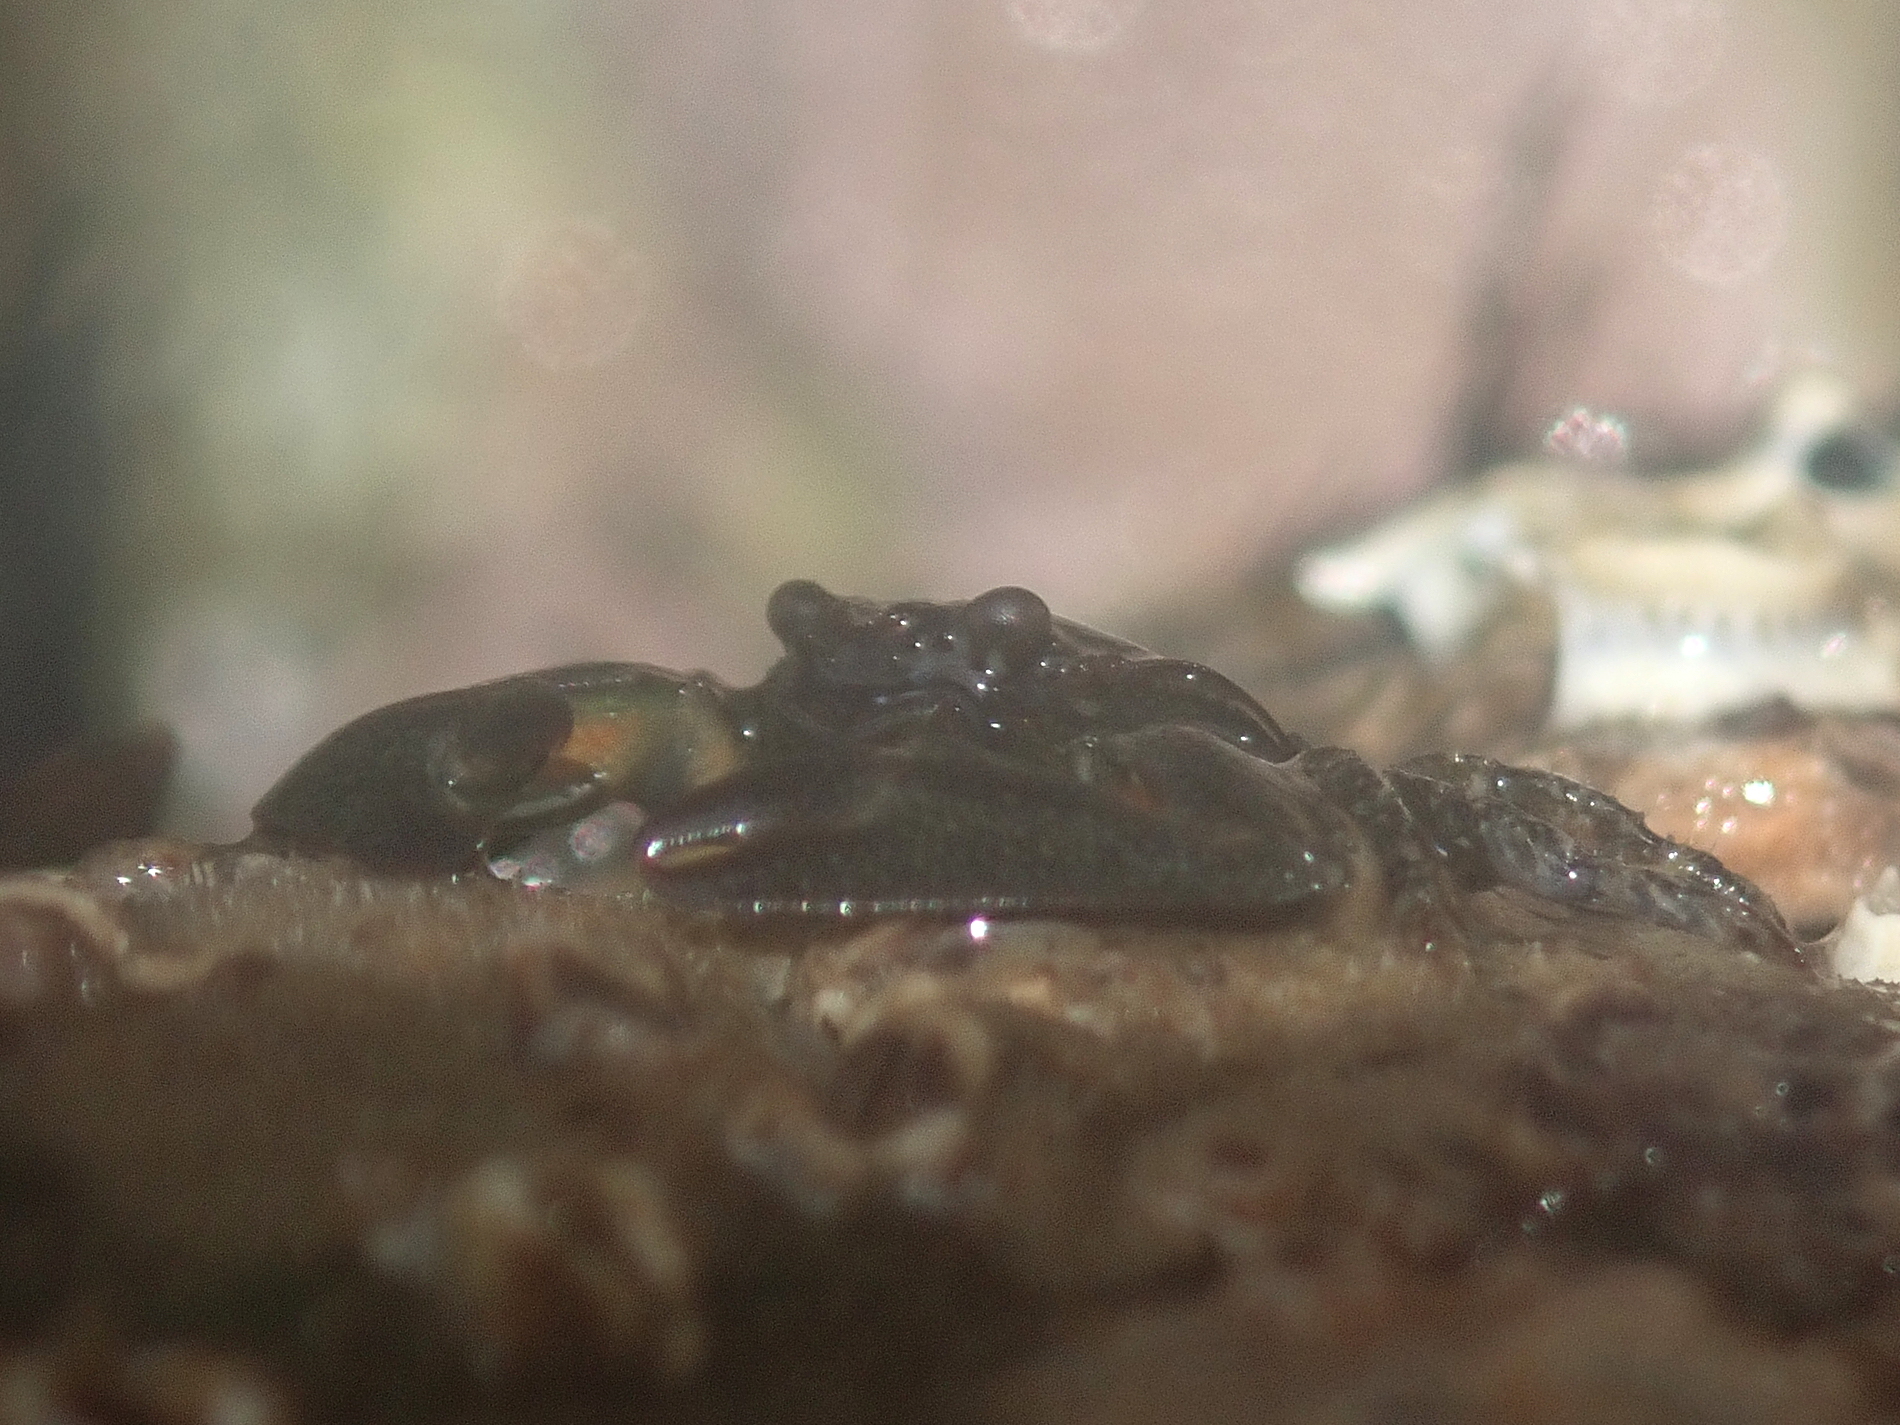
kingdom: Animalia
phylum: Arthropoda
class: Malacostraca
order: Decapoda
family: Porcellanidae
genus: Petrolisthes
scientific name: Petrolisthes elongatus
